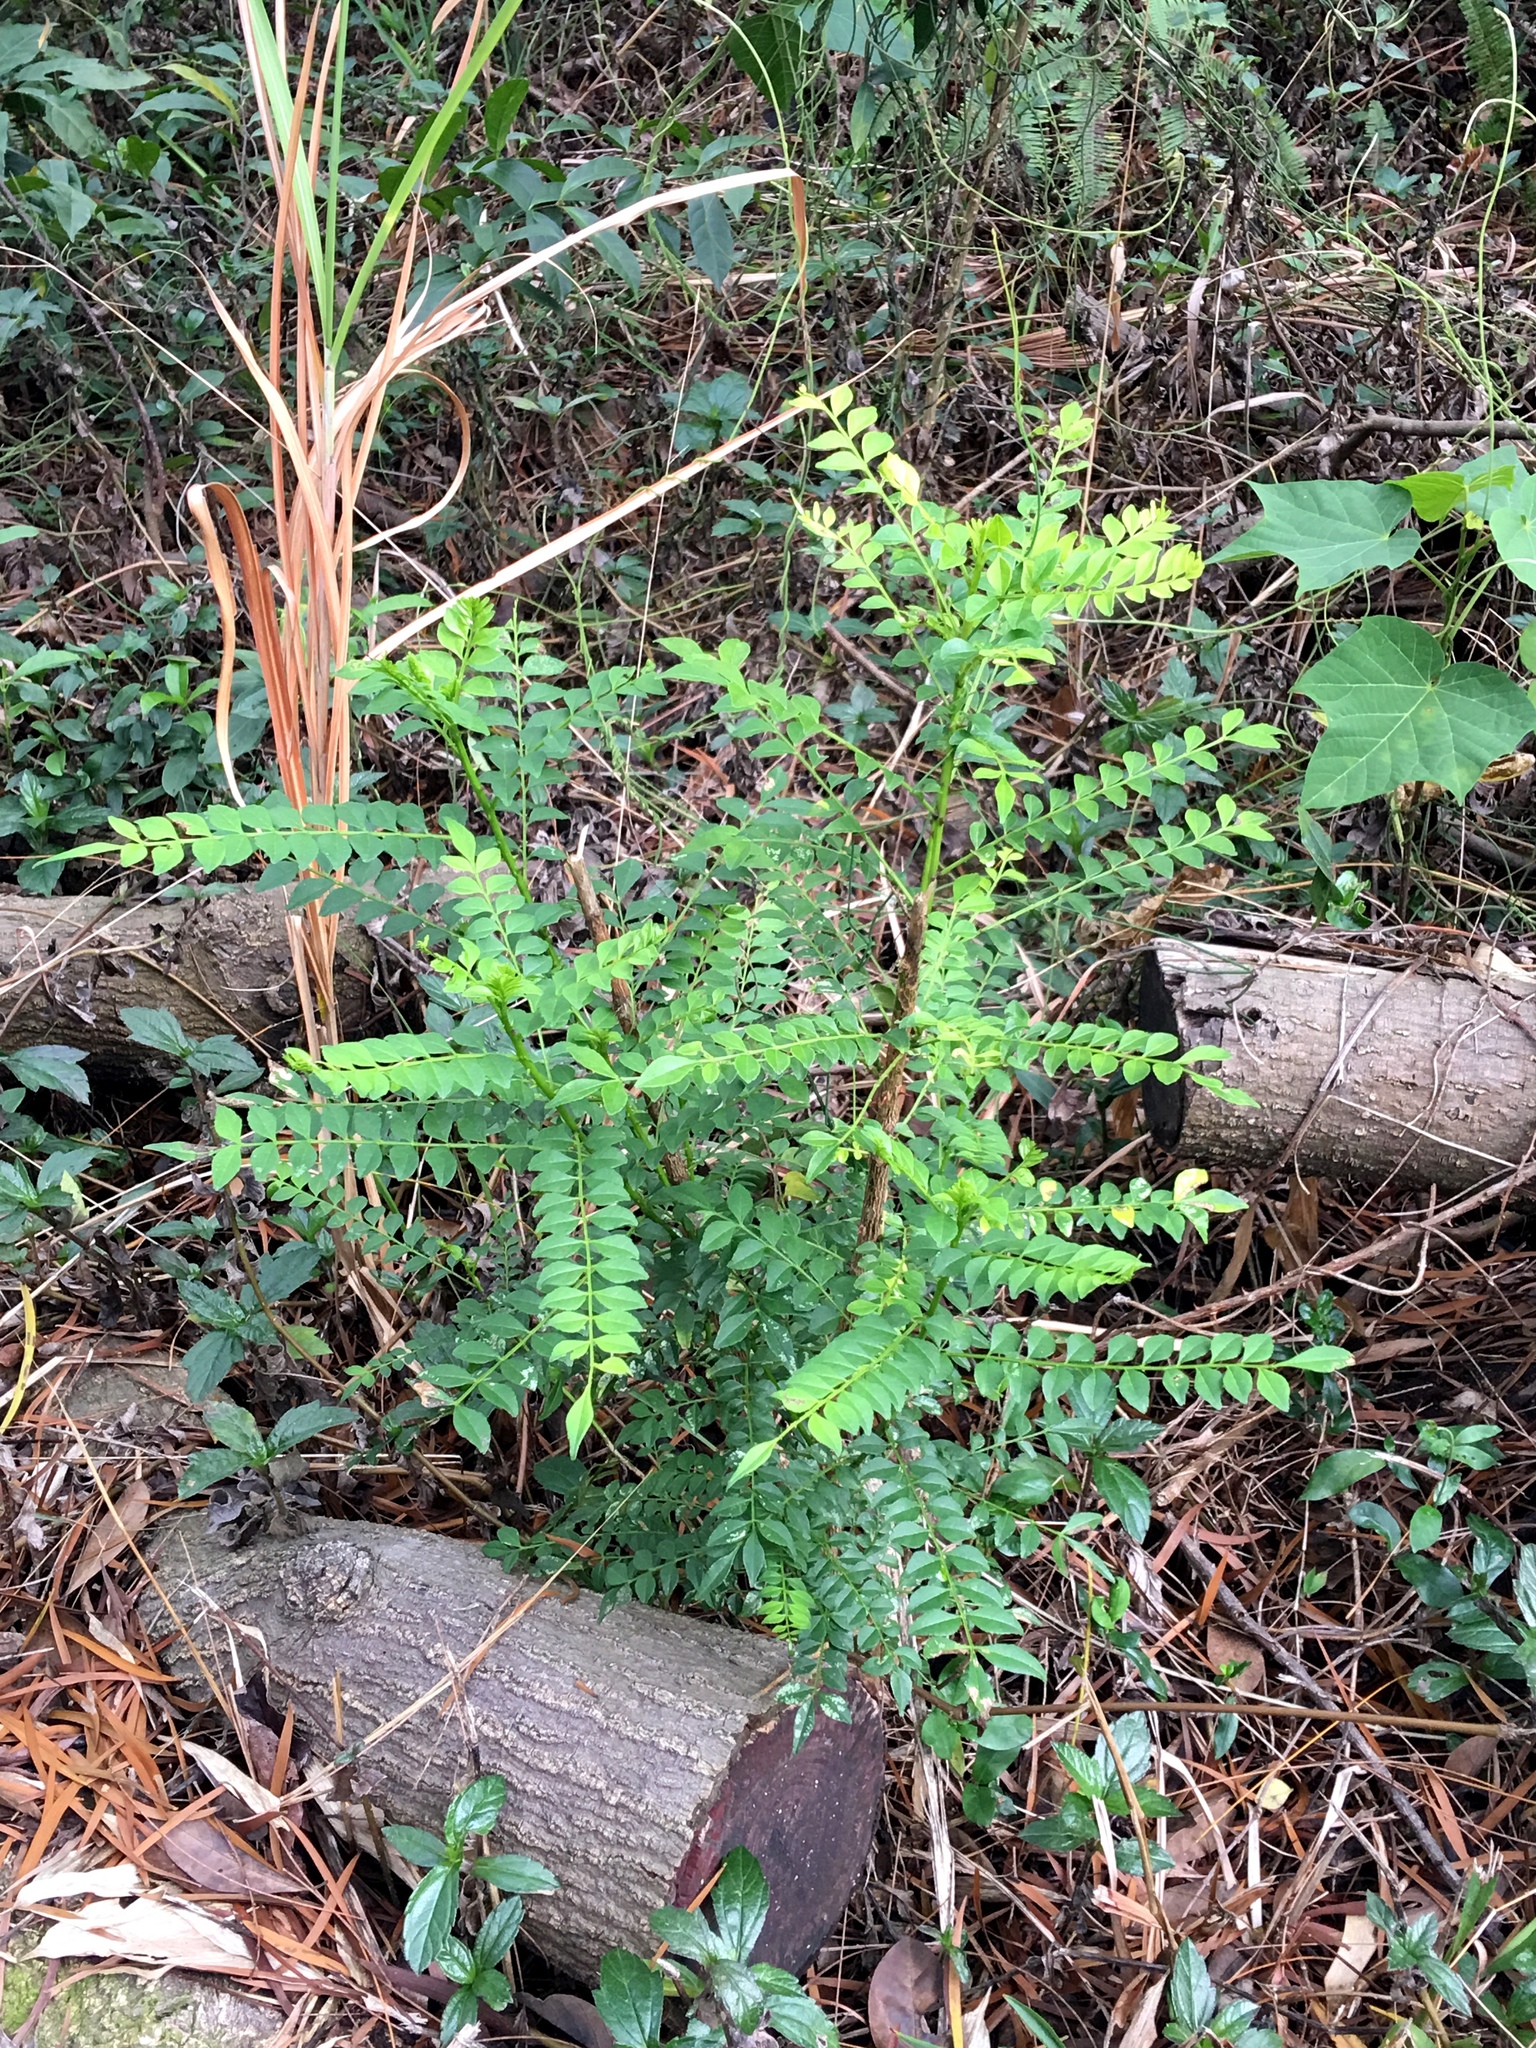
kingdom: Plantae
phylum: Tracheophyta
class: Magnoliopsida
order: Sapindales
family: Rutaceae
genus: Zanthoxylum
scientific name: Zanthoxylum avicennae
